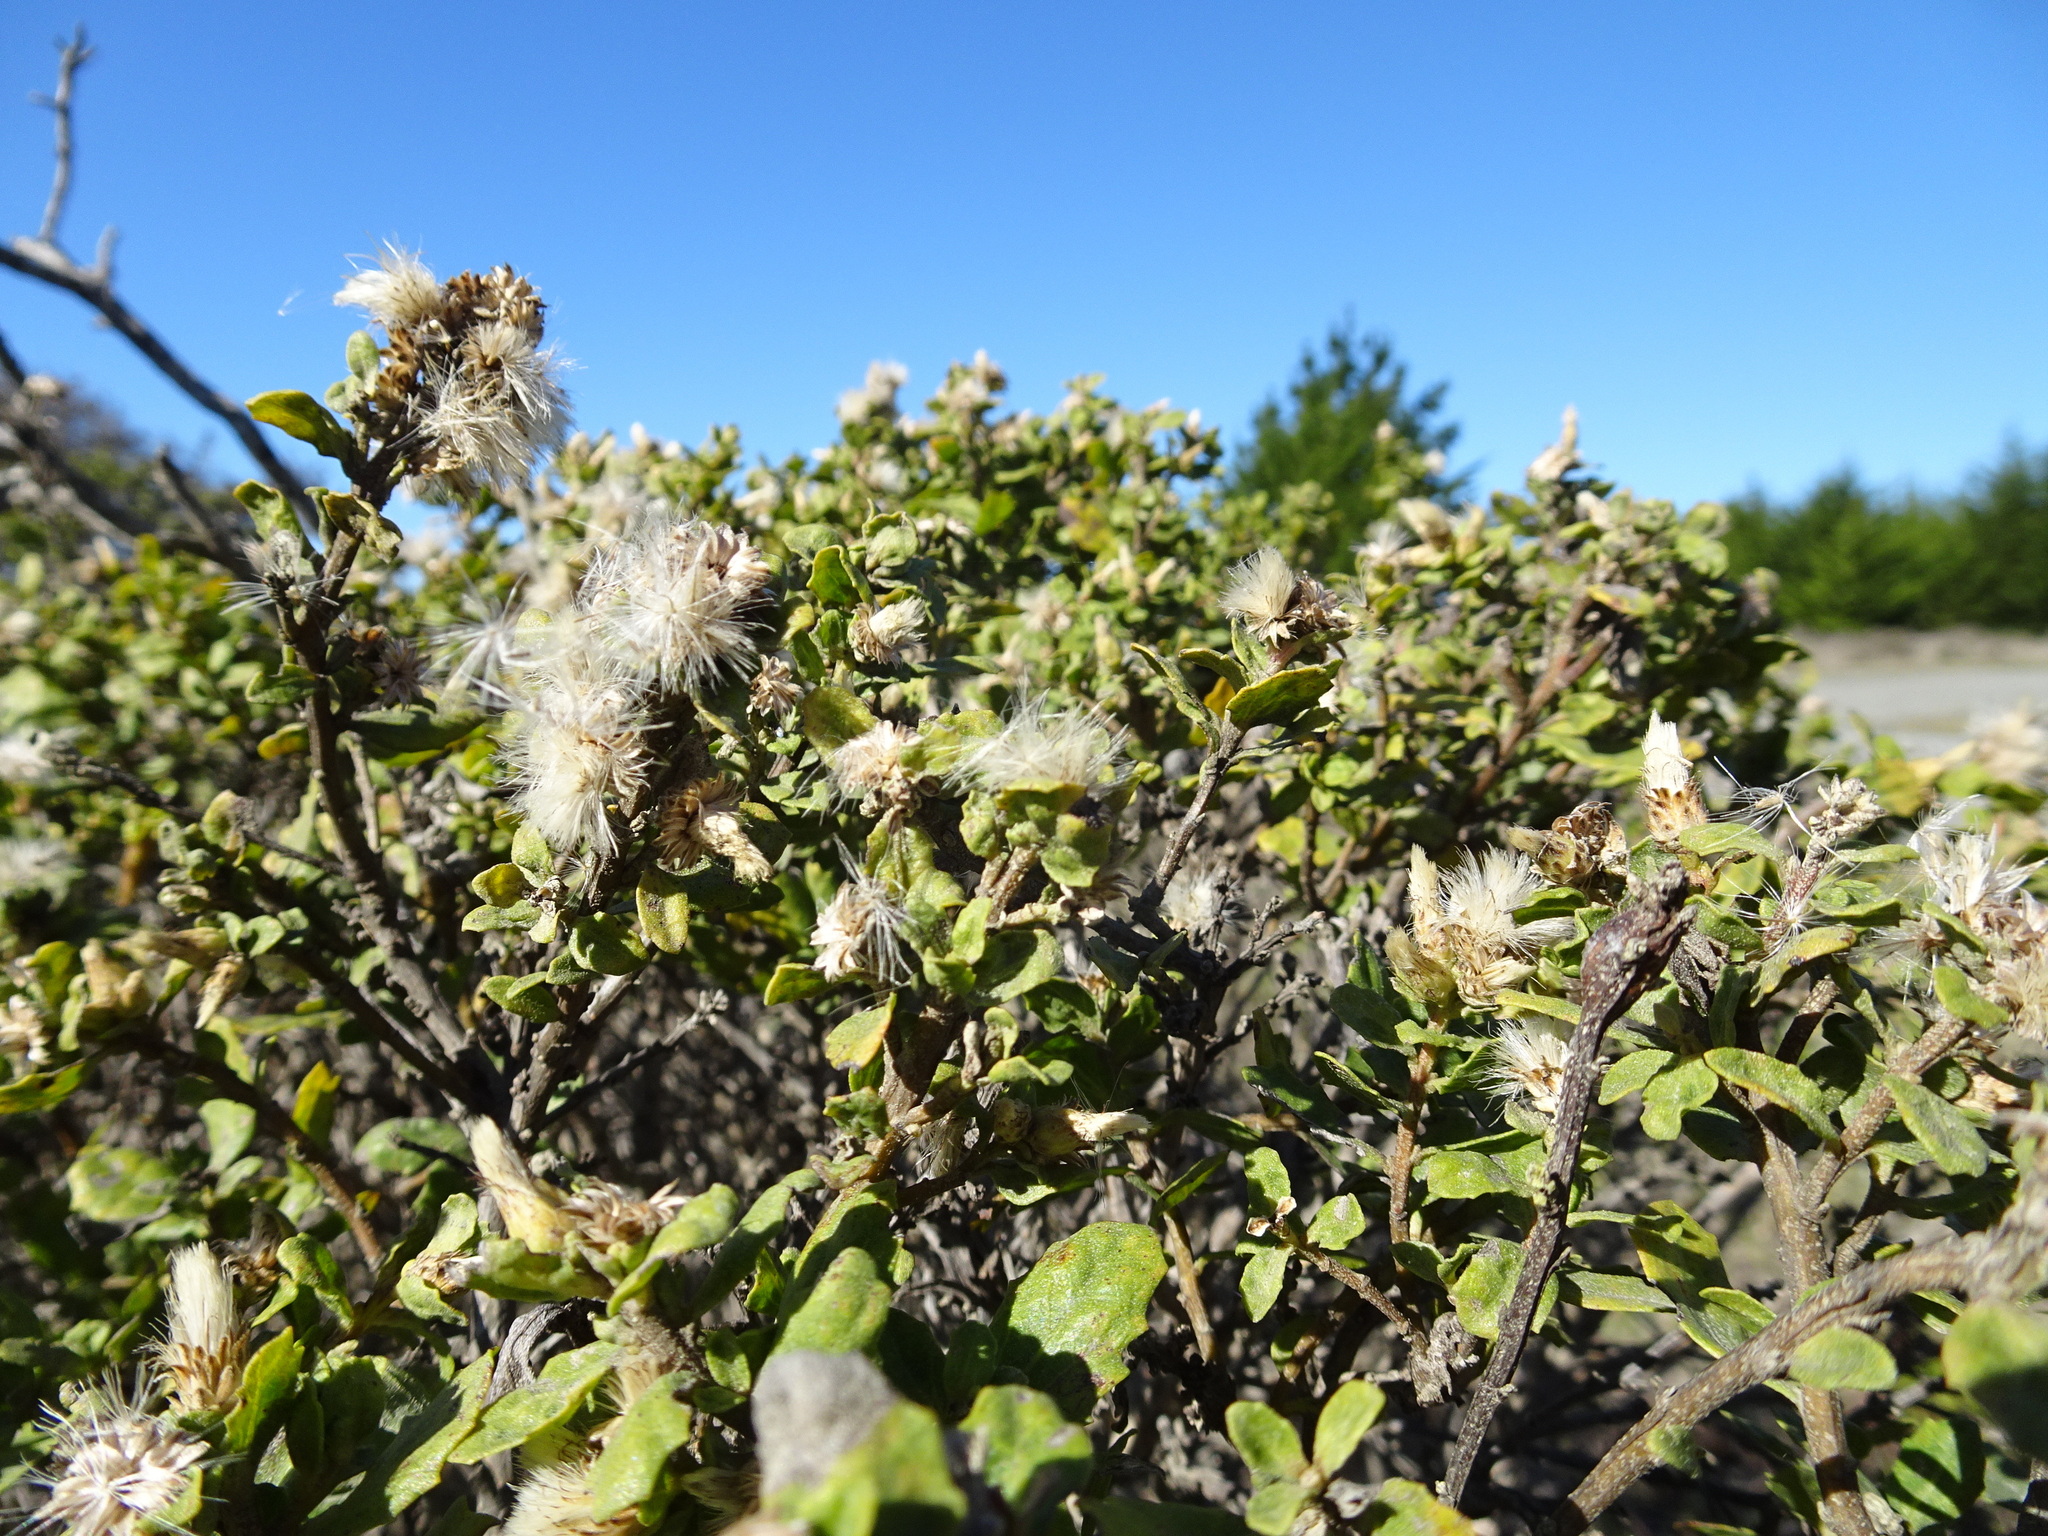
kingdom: Plantae
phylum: Tracheophyta
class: Magnoliopsida
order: Asterales
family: Asteraceae
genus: Baccharis
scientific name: Baccharis pilularis
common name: Coyotebrush
